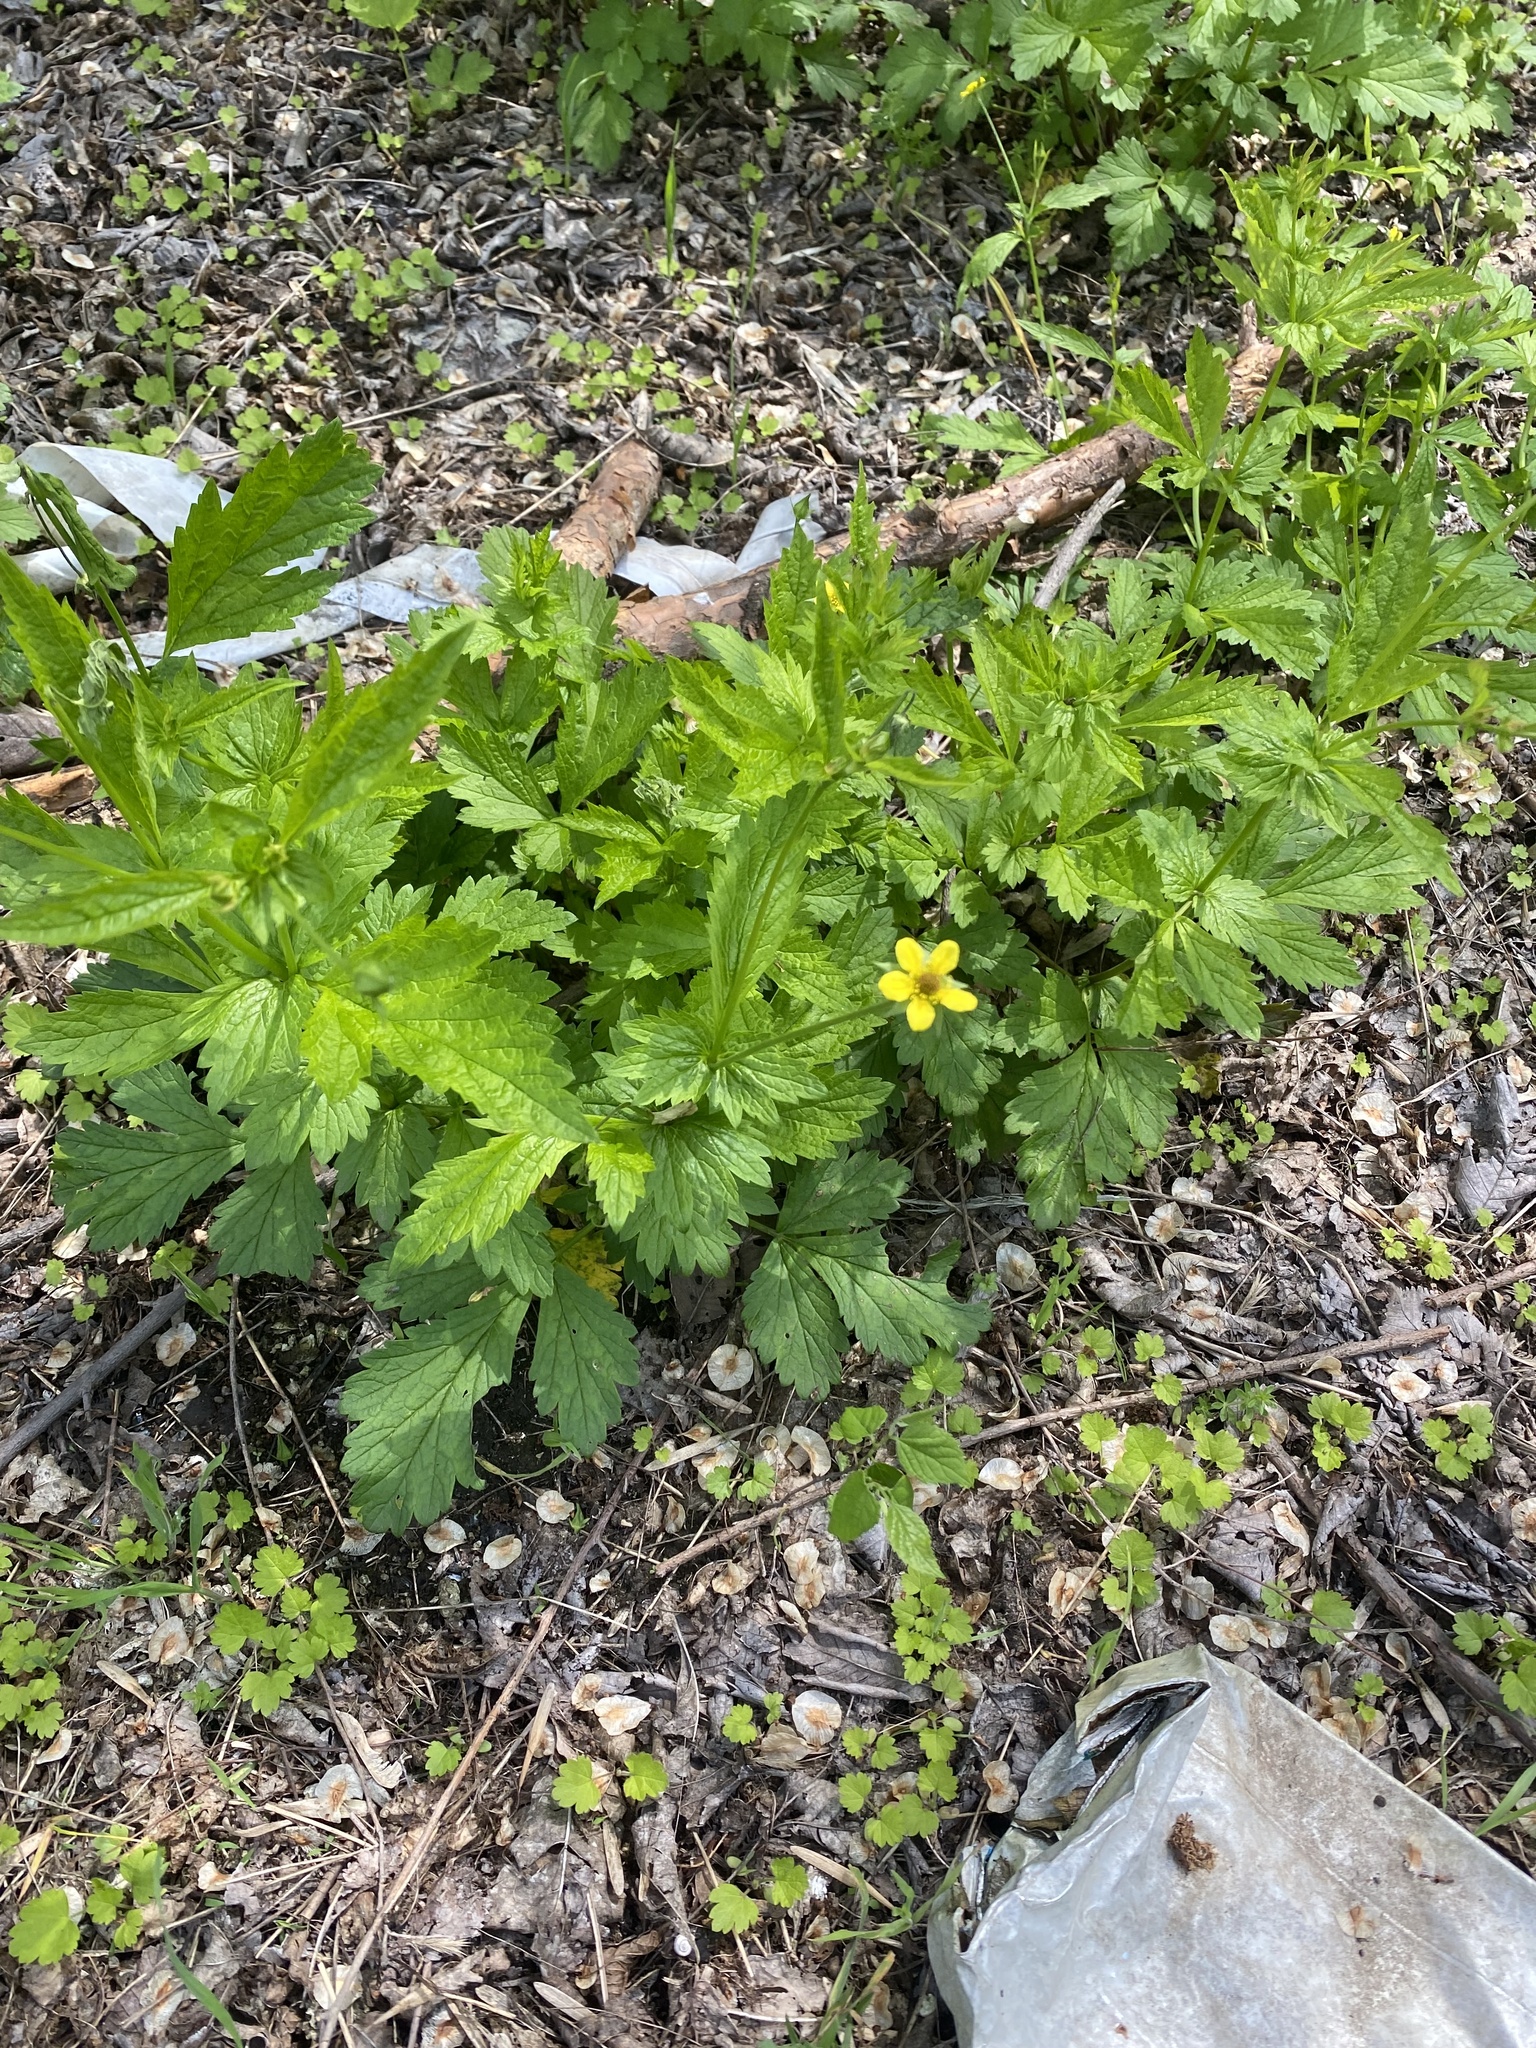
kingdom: Plantae
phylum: Tracheophyta
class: Magnoliopsida
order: Rosales
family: Rosaceae
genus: Geum
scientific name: Geum urbanum
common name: Wood avens
